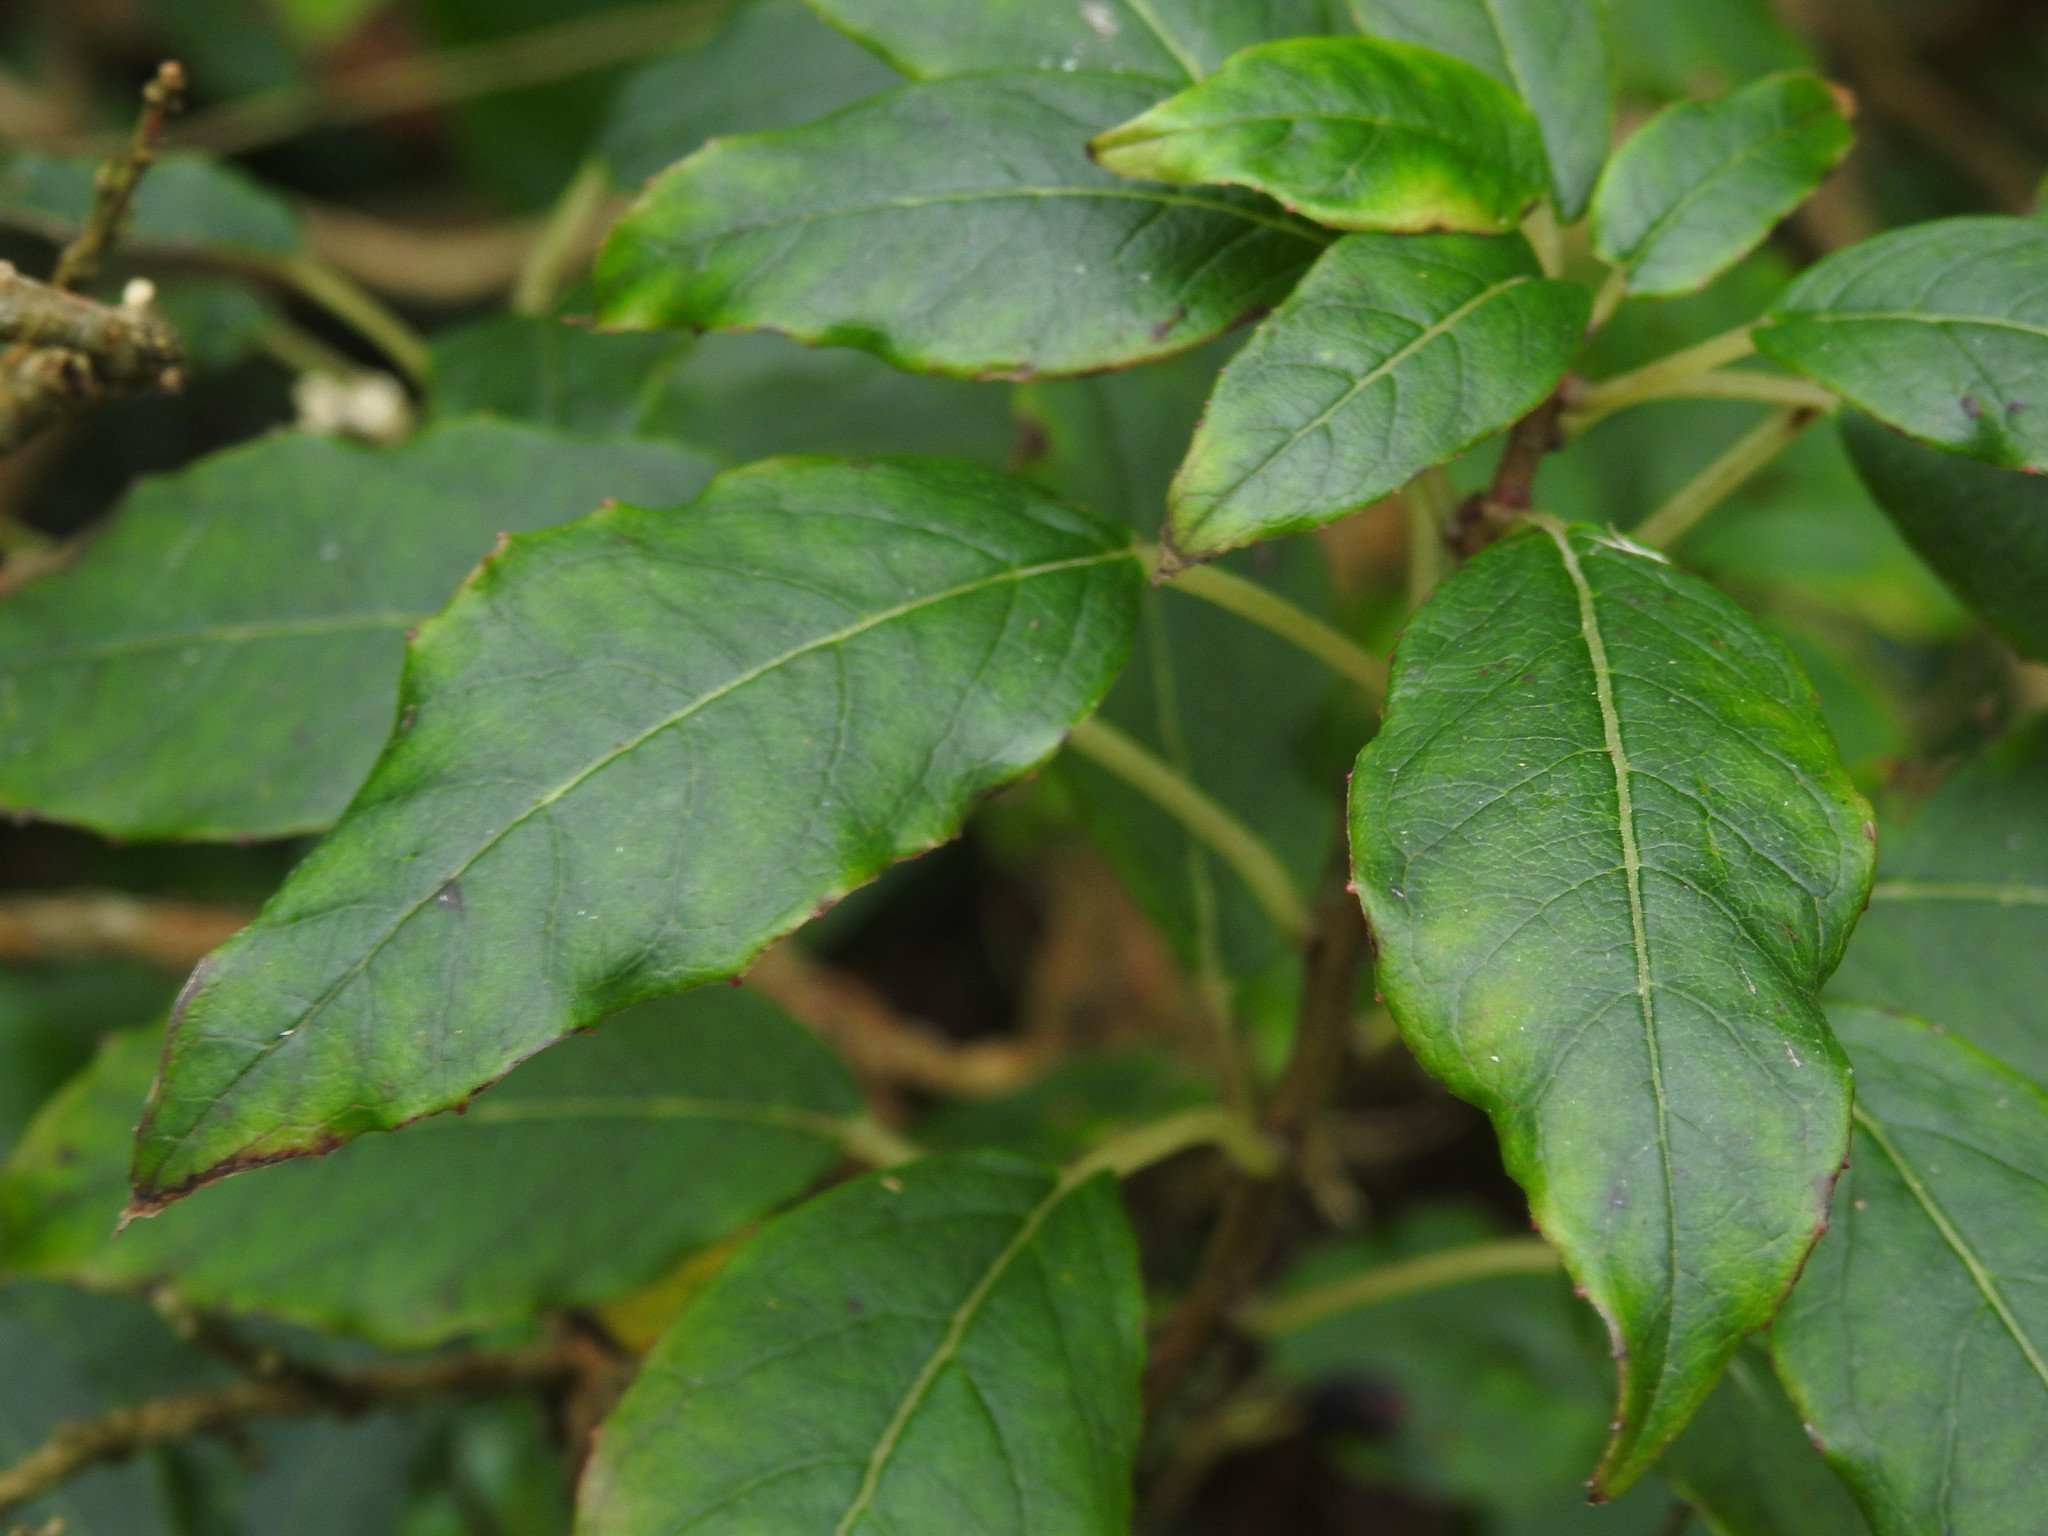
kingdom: Plantae
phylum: Tracheophyta
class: Magnoliopsida
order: Myrtales
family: Onagraceae
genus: Fuchsia
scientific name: Fuchsia excorticata
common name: Tree fuchsia
